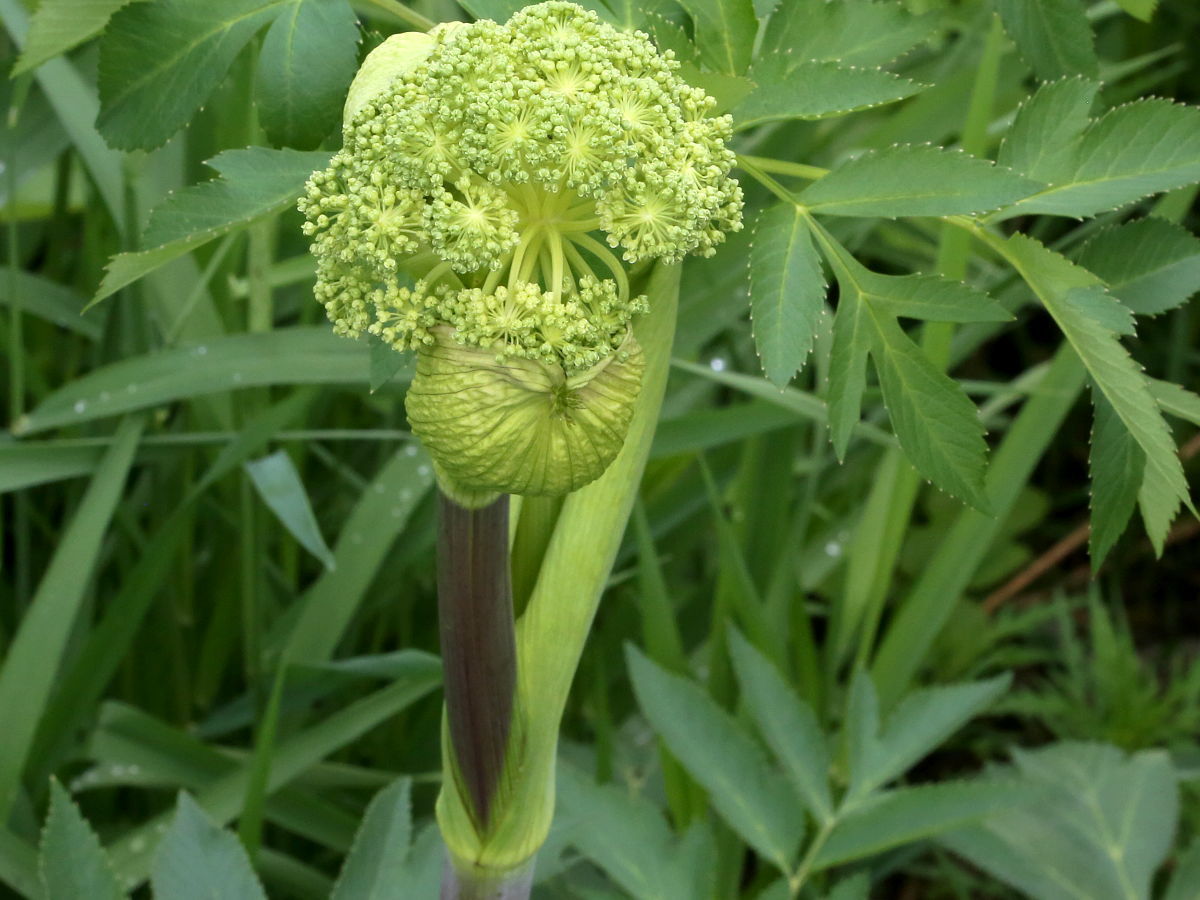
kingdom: Plantae
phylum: Tracheophyta
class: Magnoliopsida
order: Apiales
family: Apiaceae
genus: Angelica
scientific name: Angelica atropurpurea
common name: Great angelica
